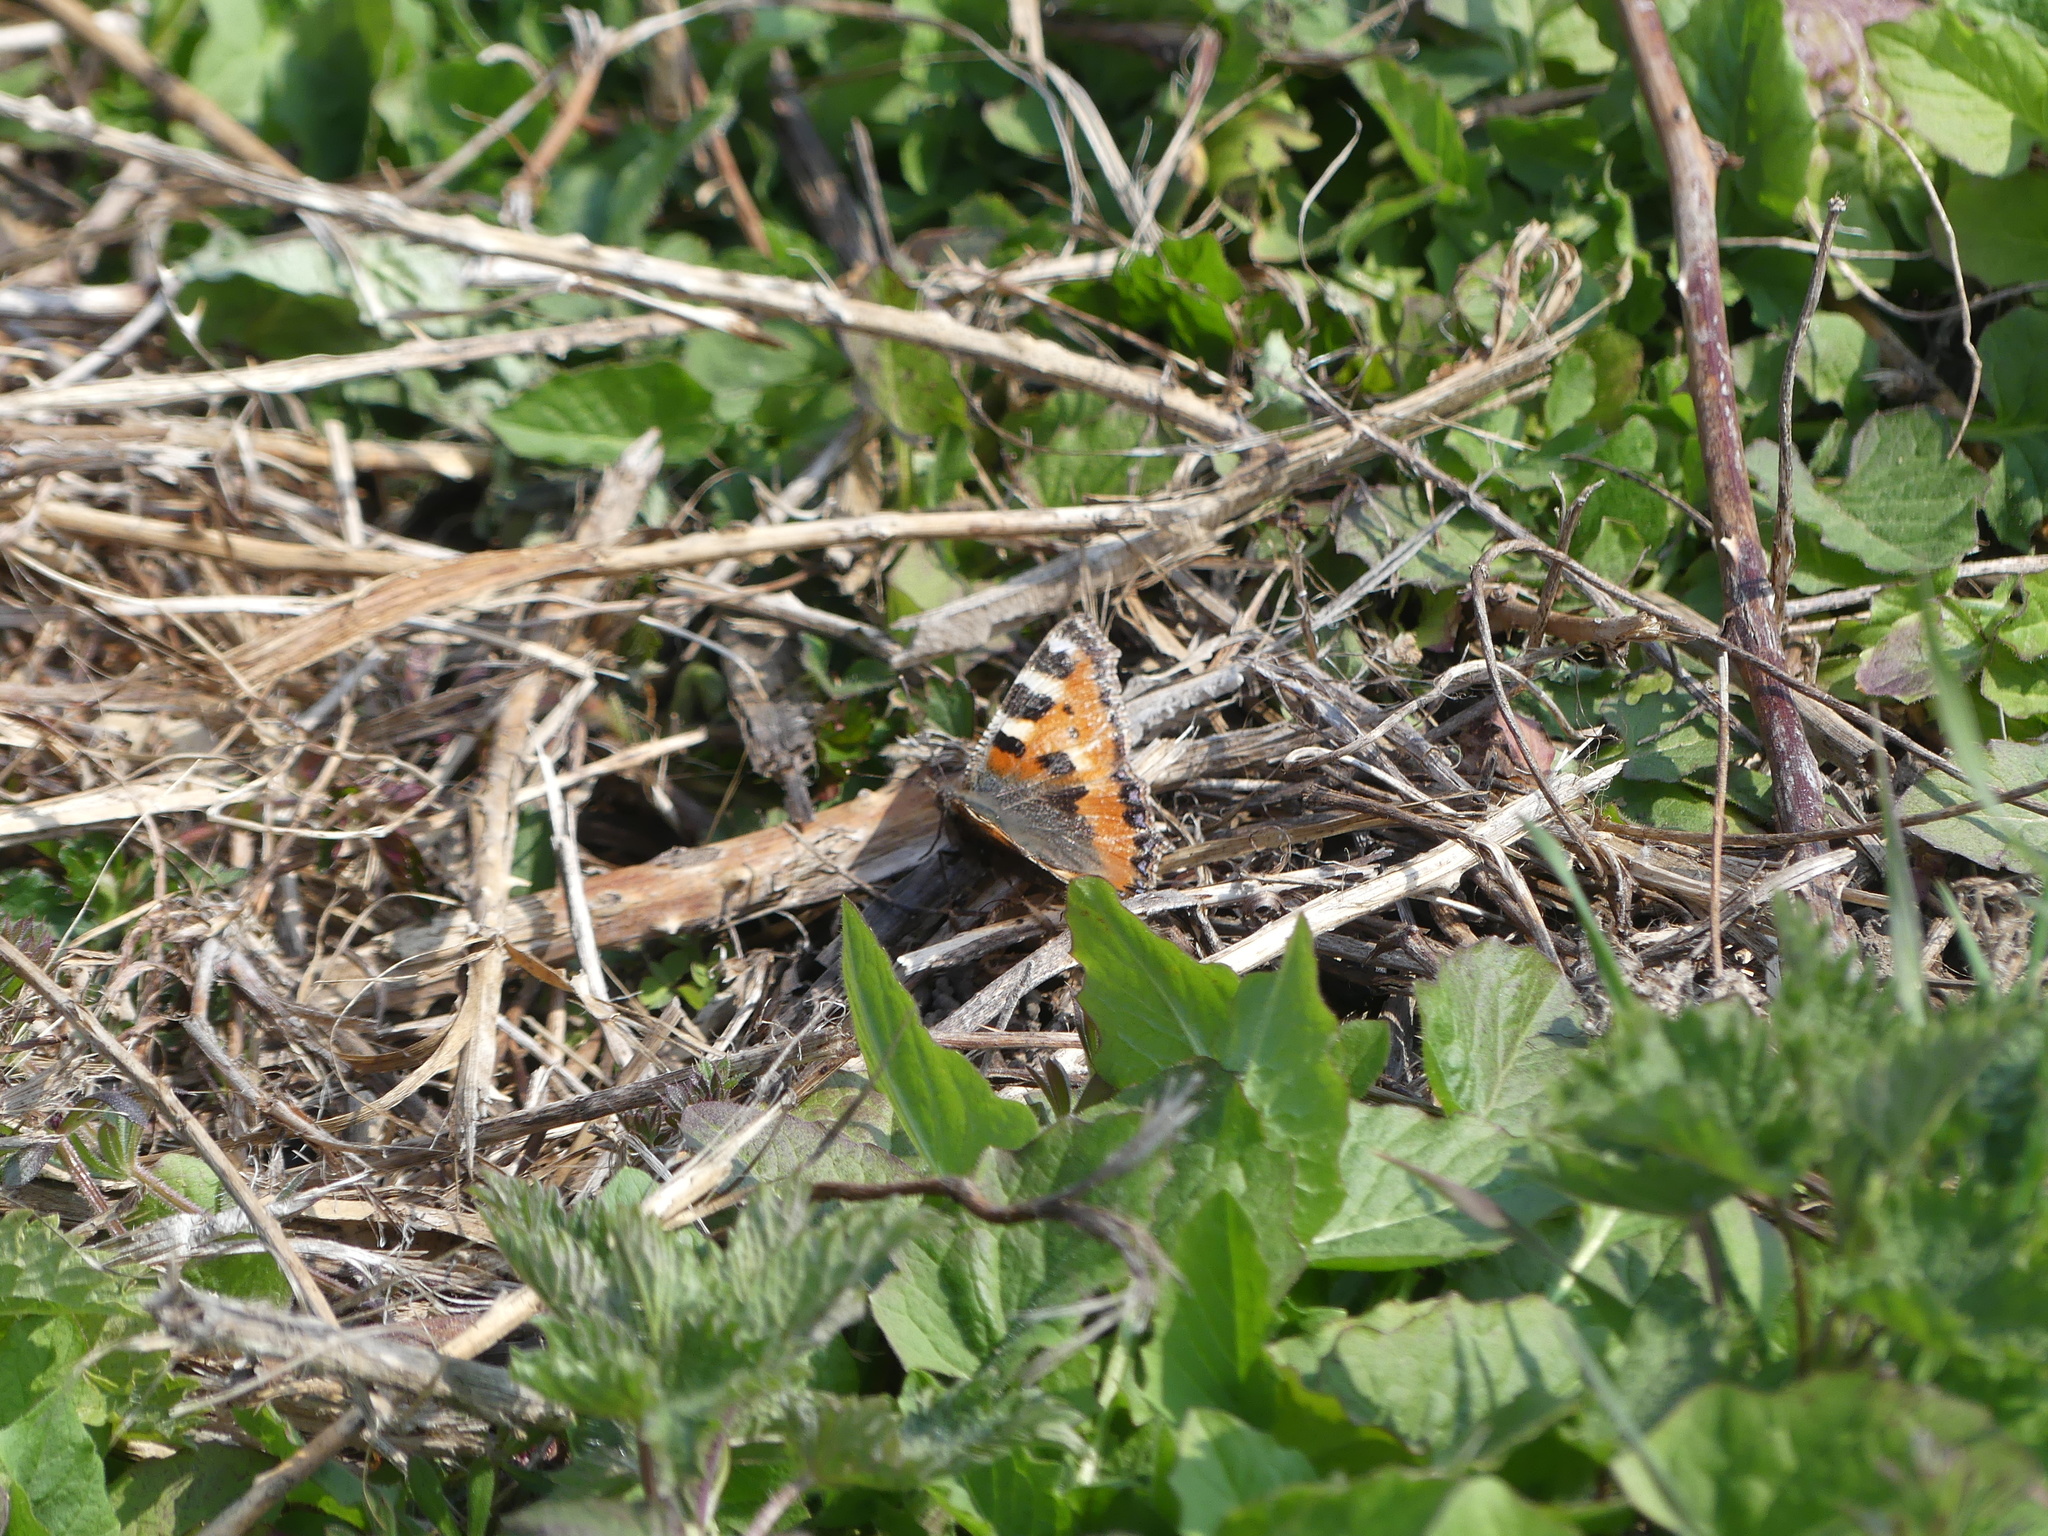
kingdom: Animalia
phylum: Arthropoda
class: Insecta
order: Lepidoptera
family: Nymphalidae
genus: Aglais
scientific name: Aglais urticae
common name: Small tortoiseshell
